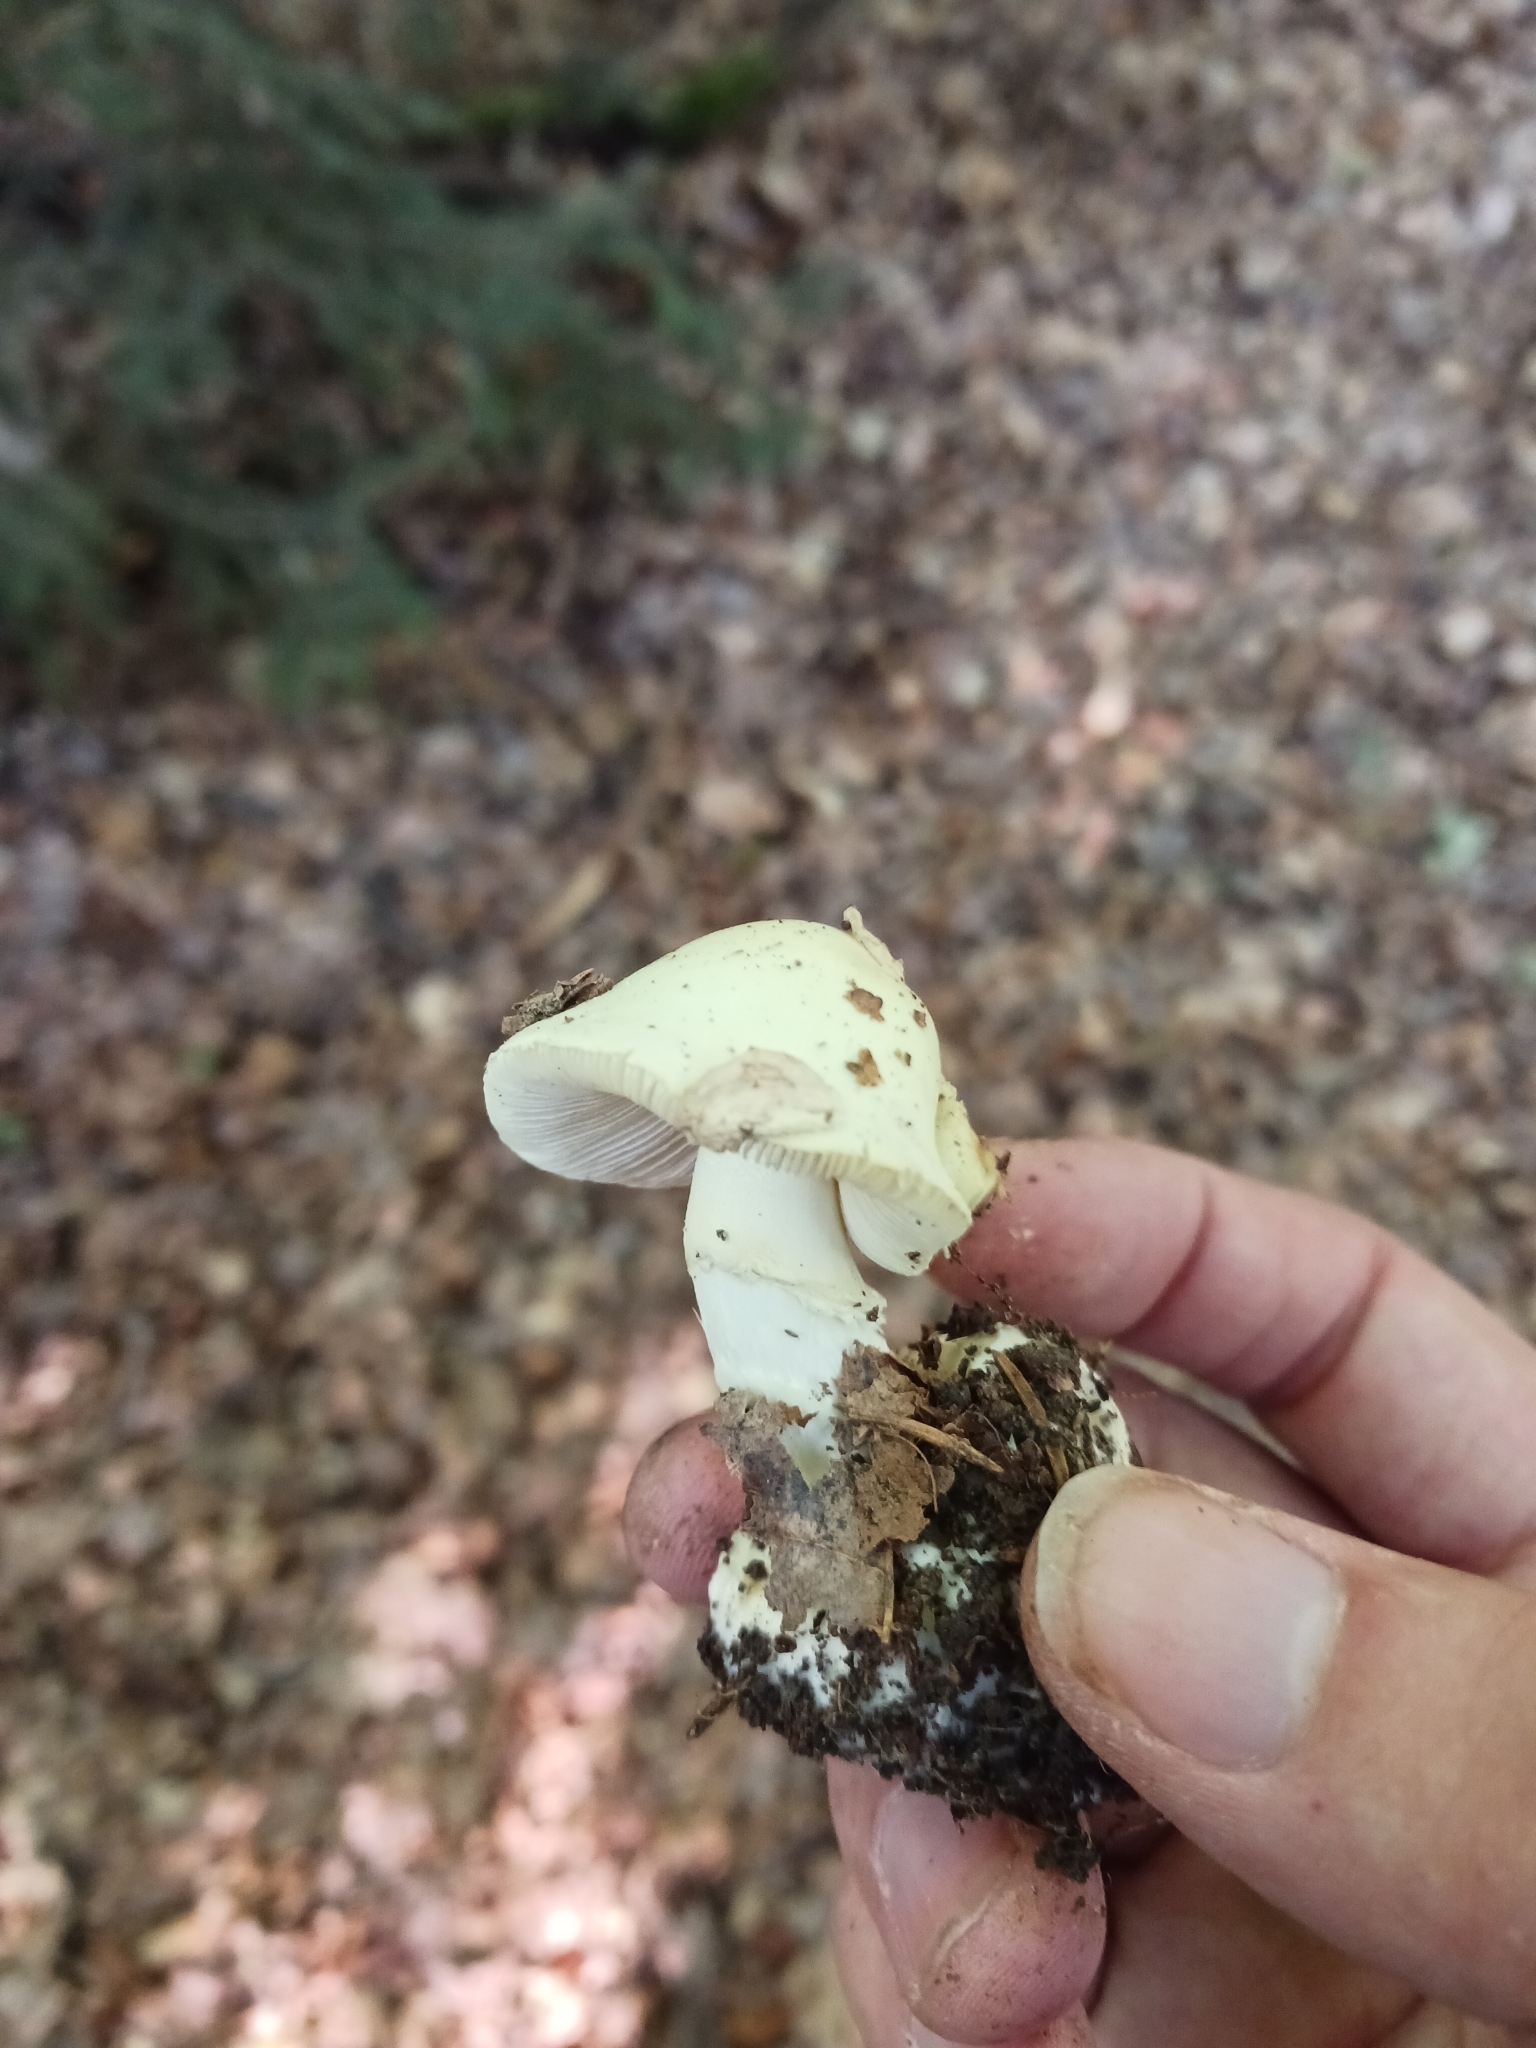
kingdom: Fungi
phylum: Basidiomycota
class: Agaricomycetes
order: Agaricales
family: Amanitaceae
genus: Amanita
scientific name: Amanita citrina
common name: False death-cap
